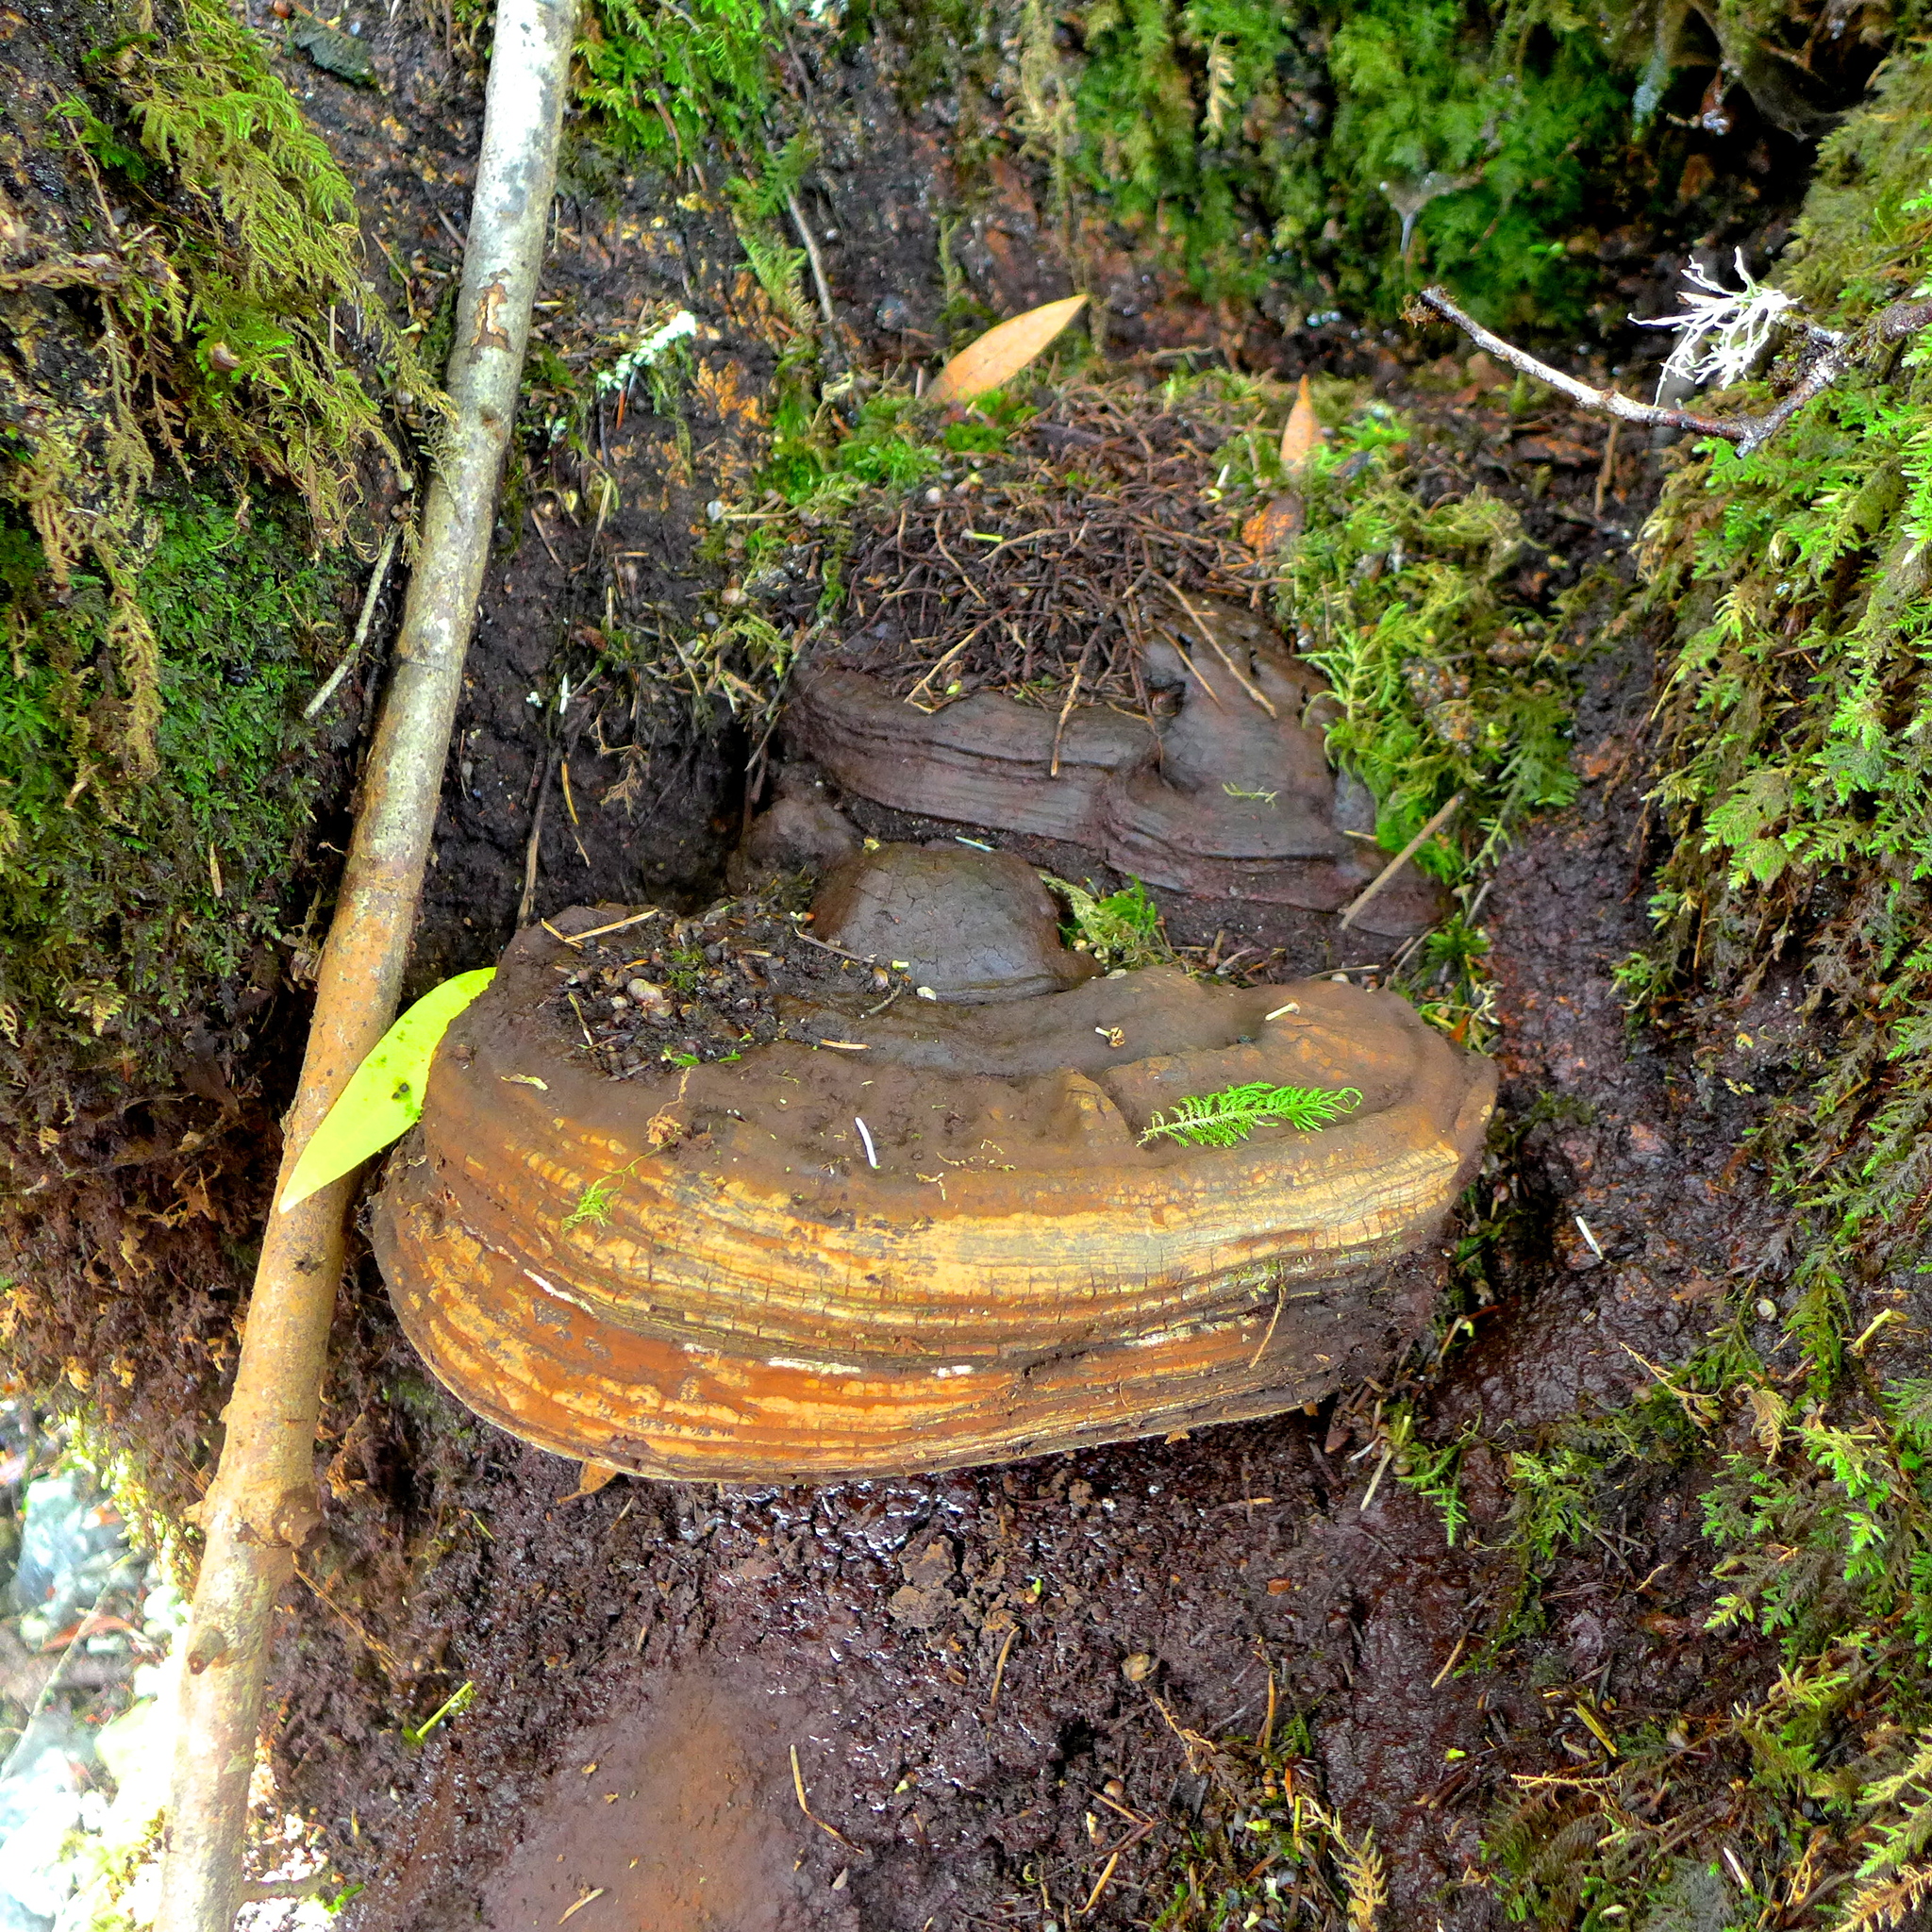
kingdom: Fungi
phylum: Basidiomycota
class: Agaricomycetes
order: Polyporales
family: Polyporaceae
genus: Ganoderma
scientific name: Ganoderma brownii
